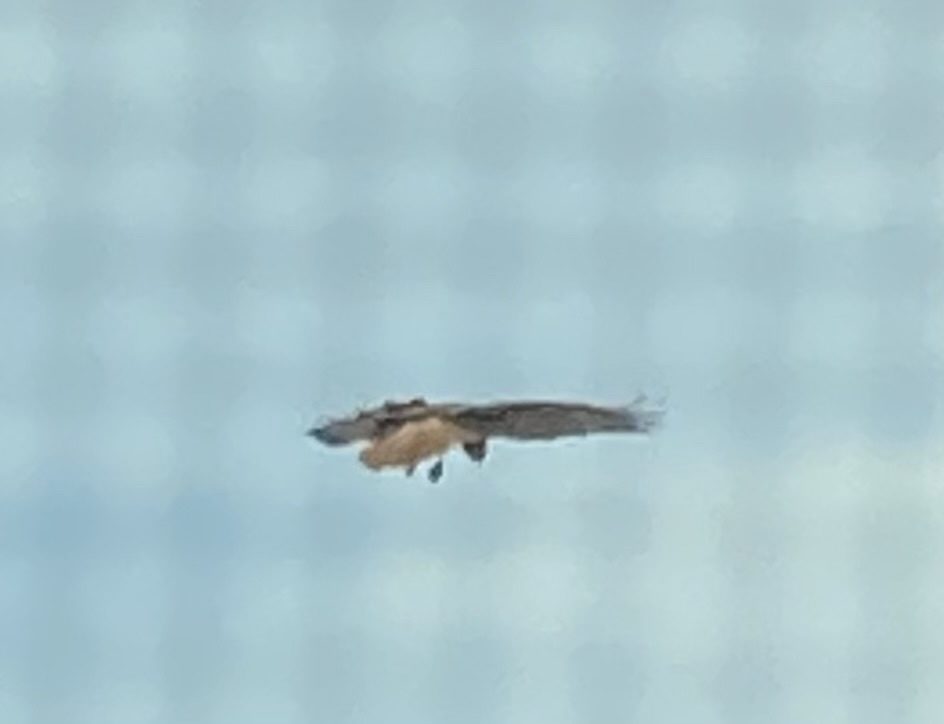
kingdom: Animalia
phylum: Chordata
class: Aves
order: Accipitriformes
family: Accipitridae
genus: Buteo
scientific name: Buteo jamaicensis
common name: Red-tailed hawk
